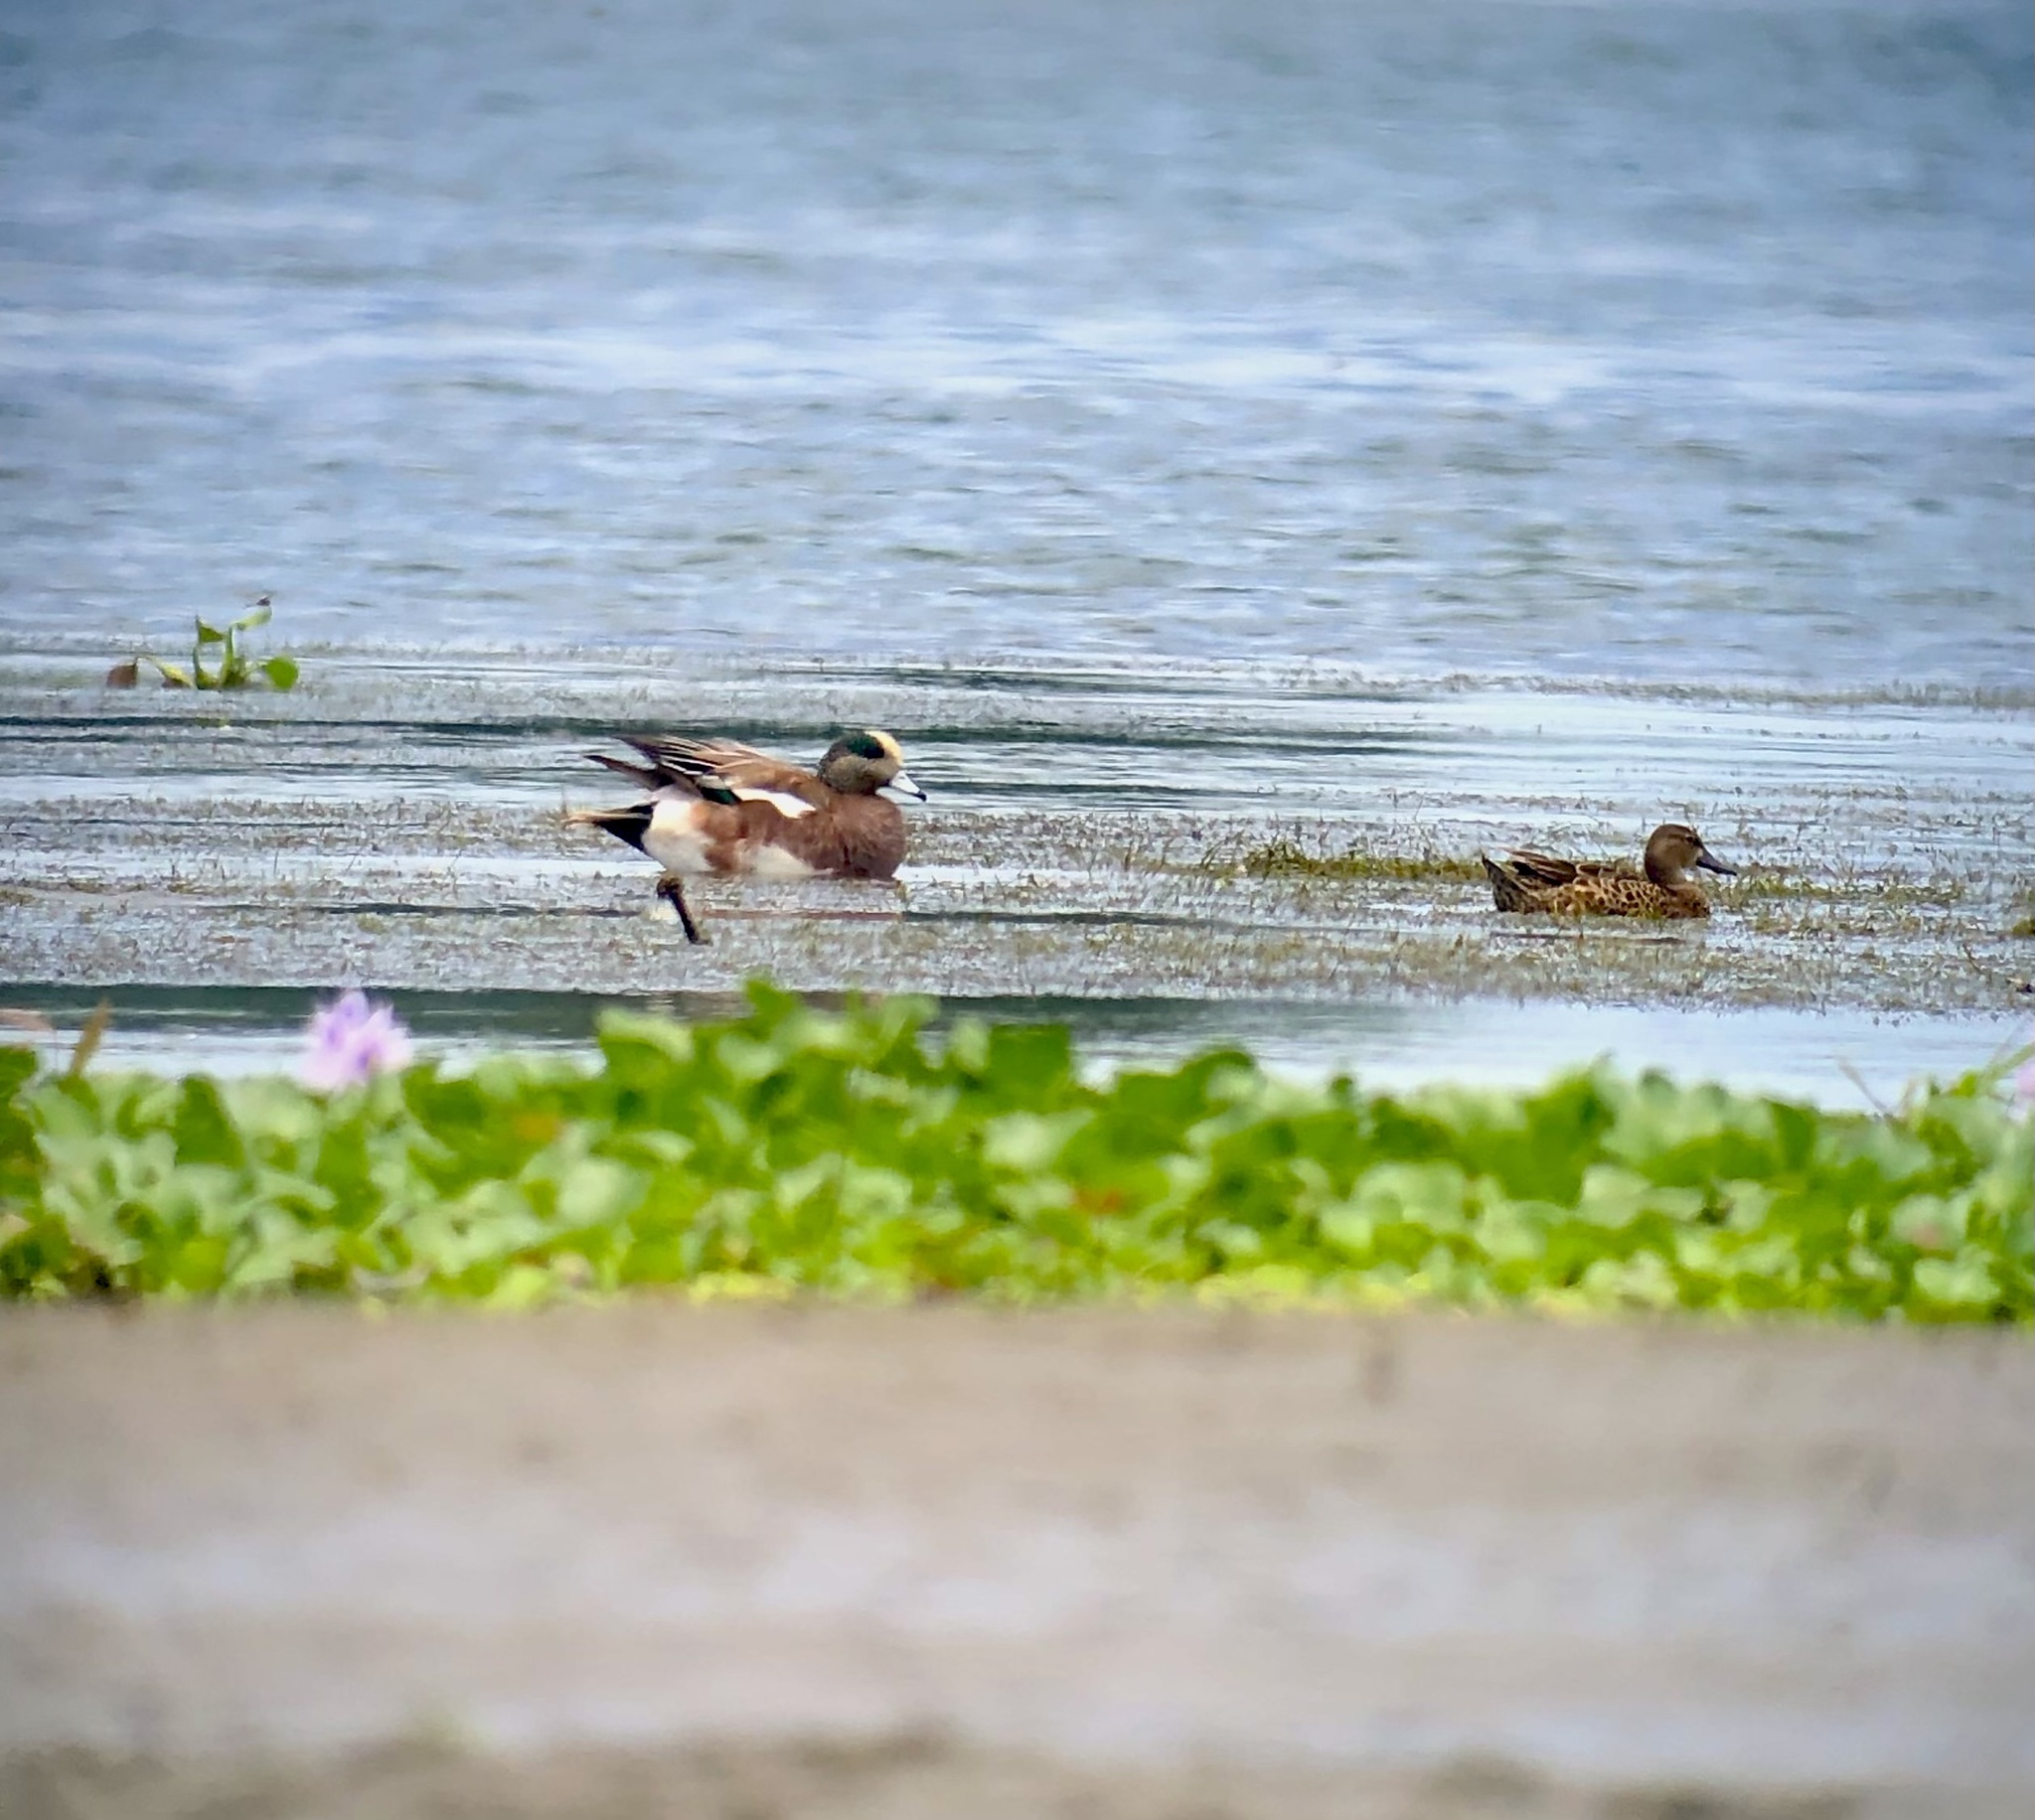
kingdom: Animalia
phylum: Chordata
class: Aves
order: Anseriformes
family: Anatidae
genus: Mareca
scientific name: Mareca americana
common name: American wigeon
